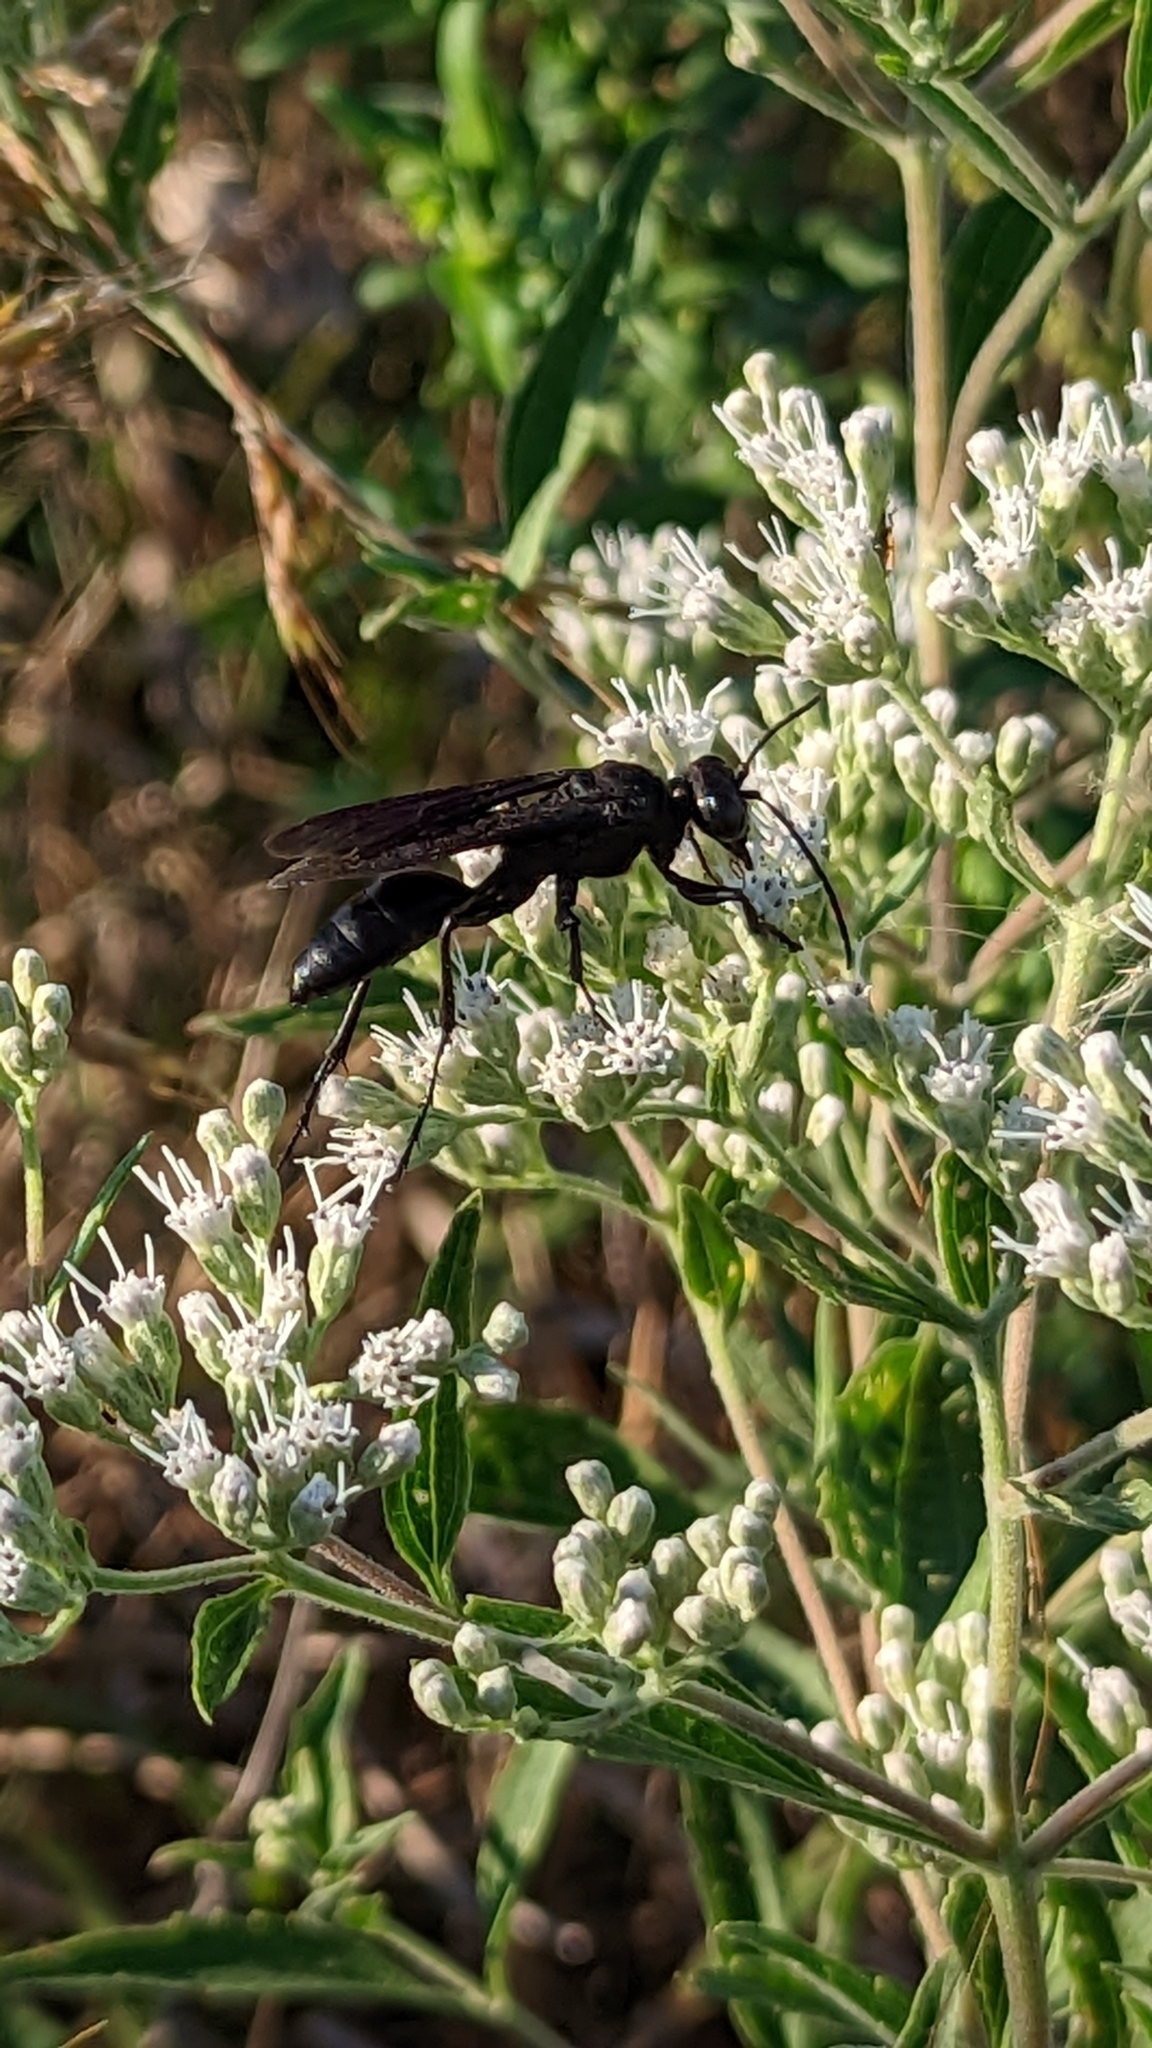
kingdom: Animalia
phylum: Arthropoda
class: Insecta
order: Hymenoptera
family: Sphecidae
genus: Sphex
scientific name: Sphex pensylvanicus
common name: Great black digger wasp
